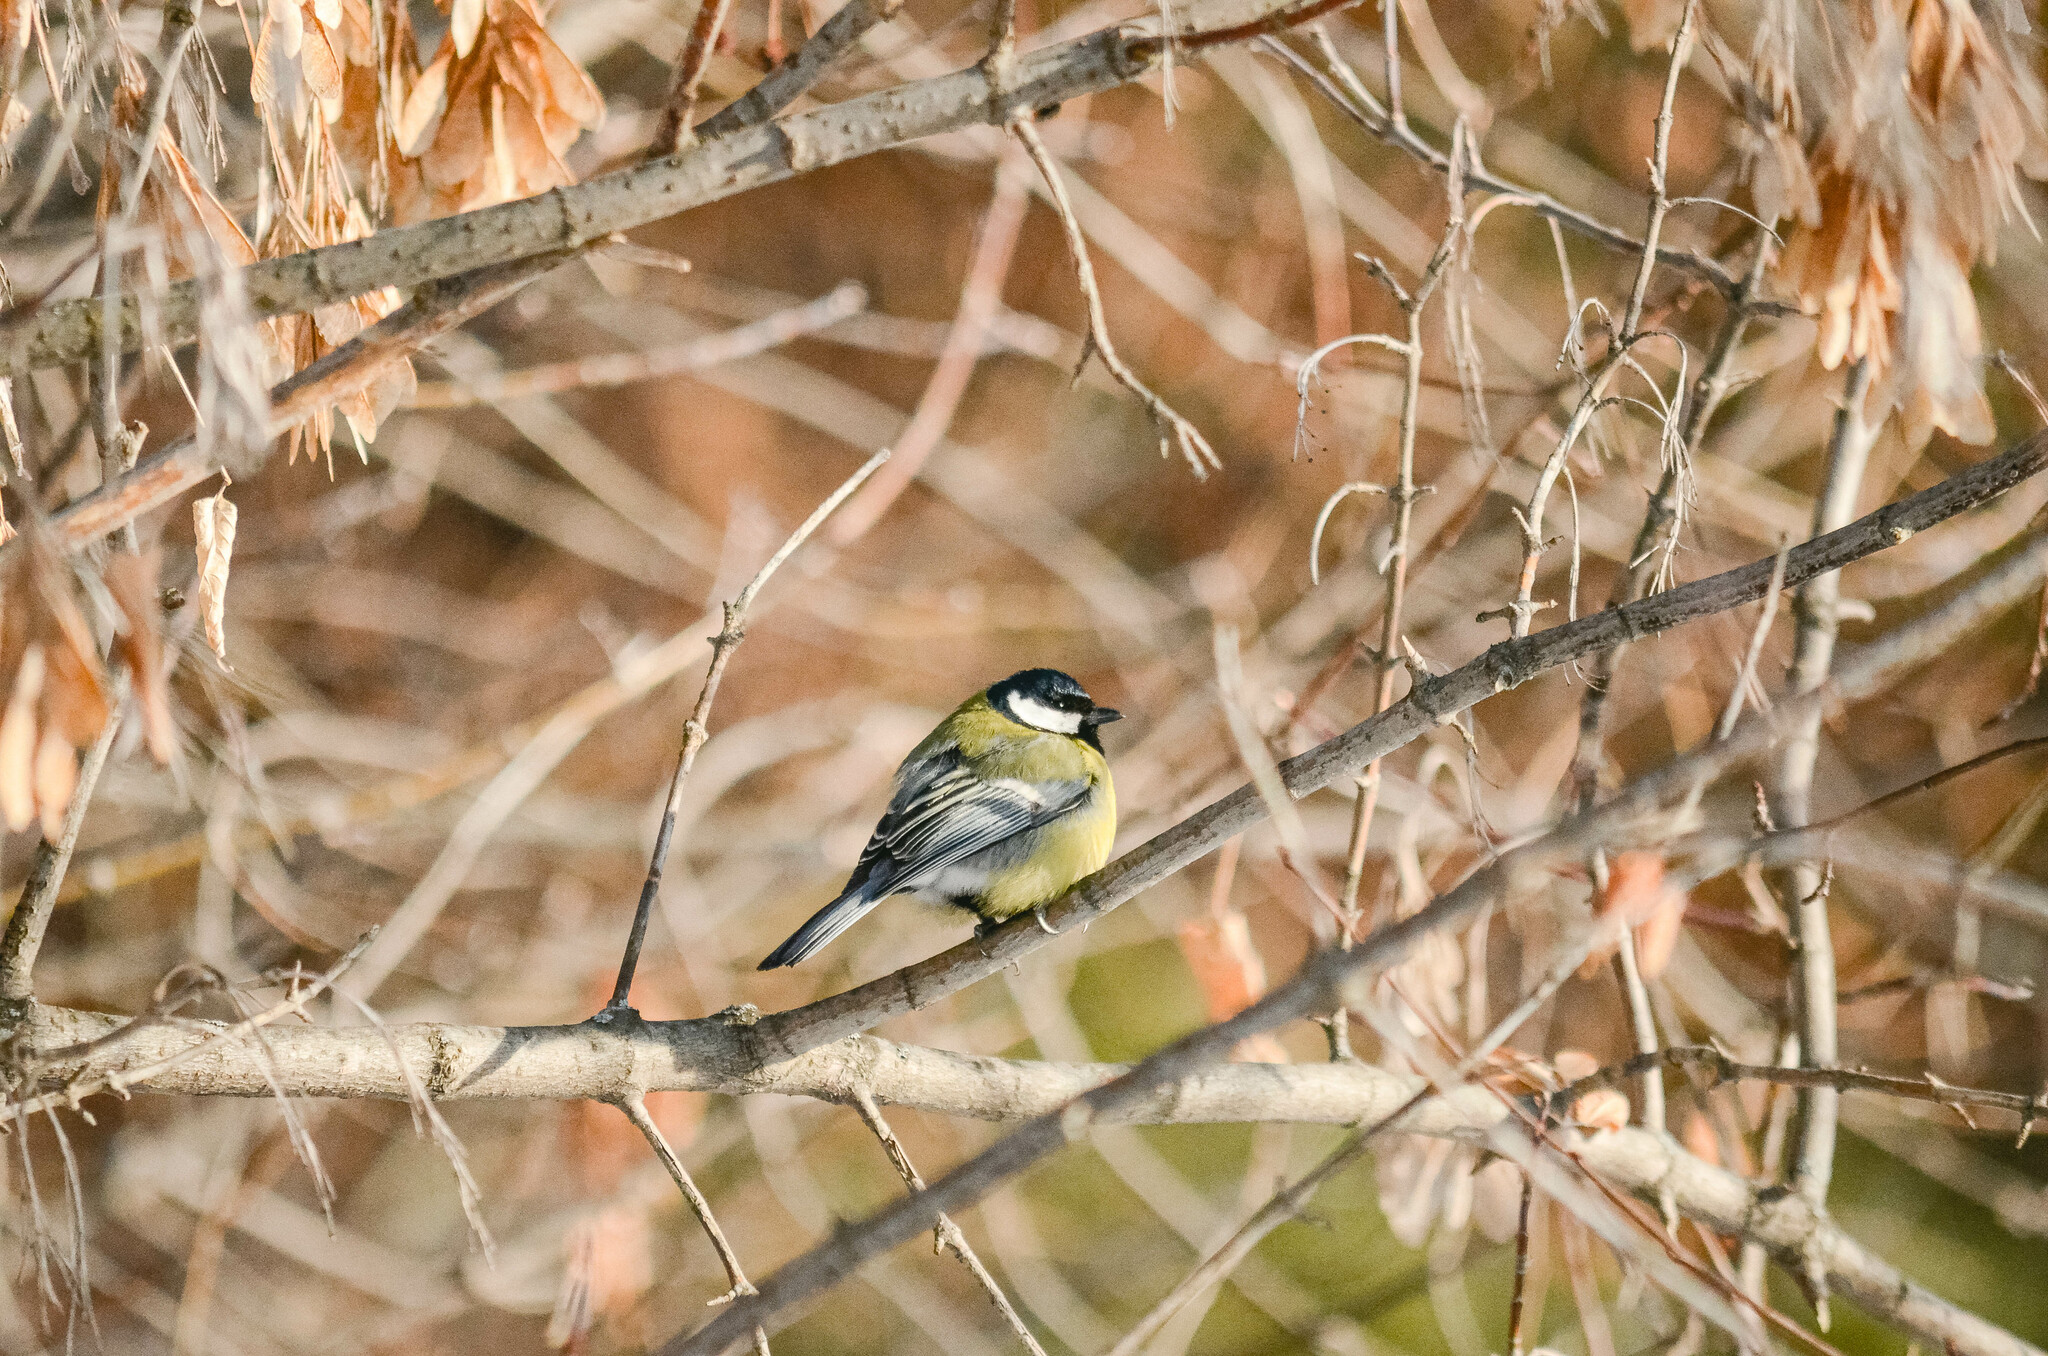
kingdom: Animalia
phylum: Chordata
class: Aves
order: Passeriformes
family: Paridae
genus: Parus
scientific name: Parus major
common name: Great tit
